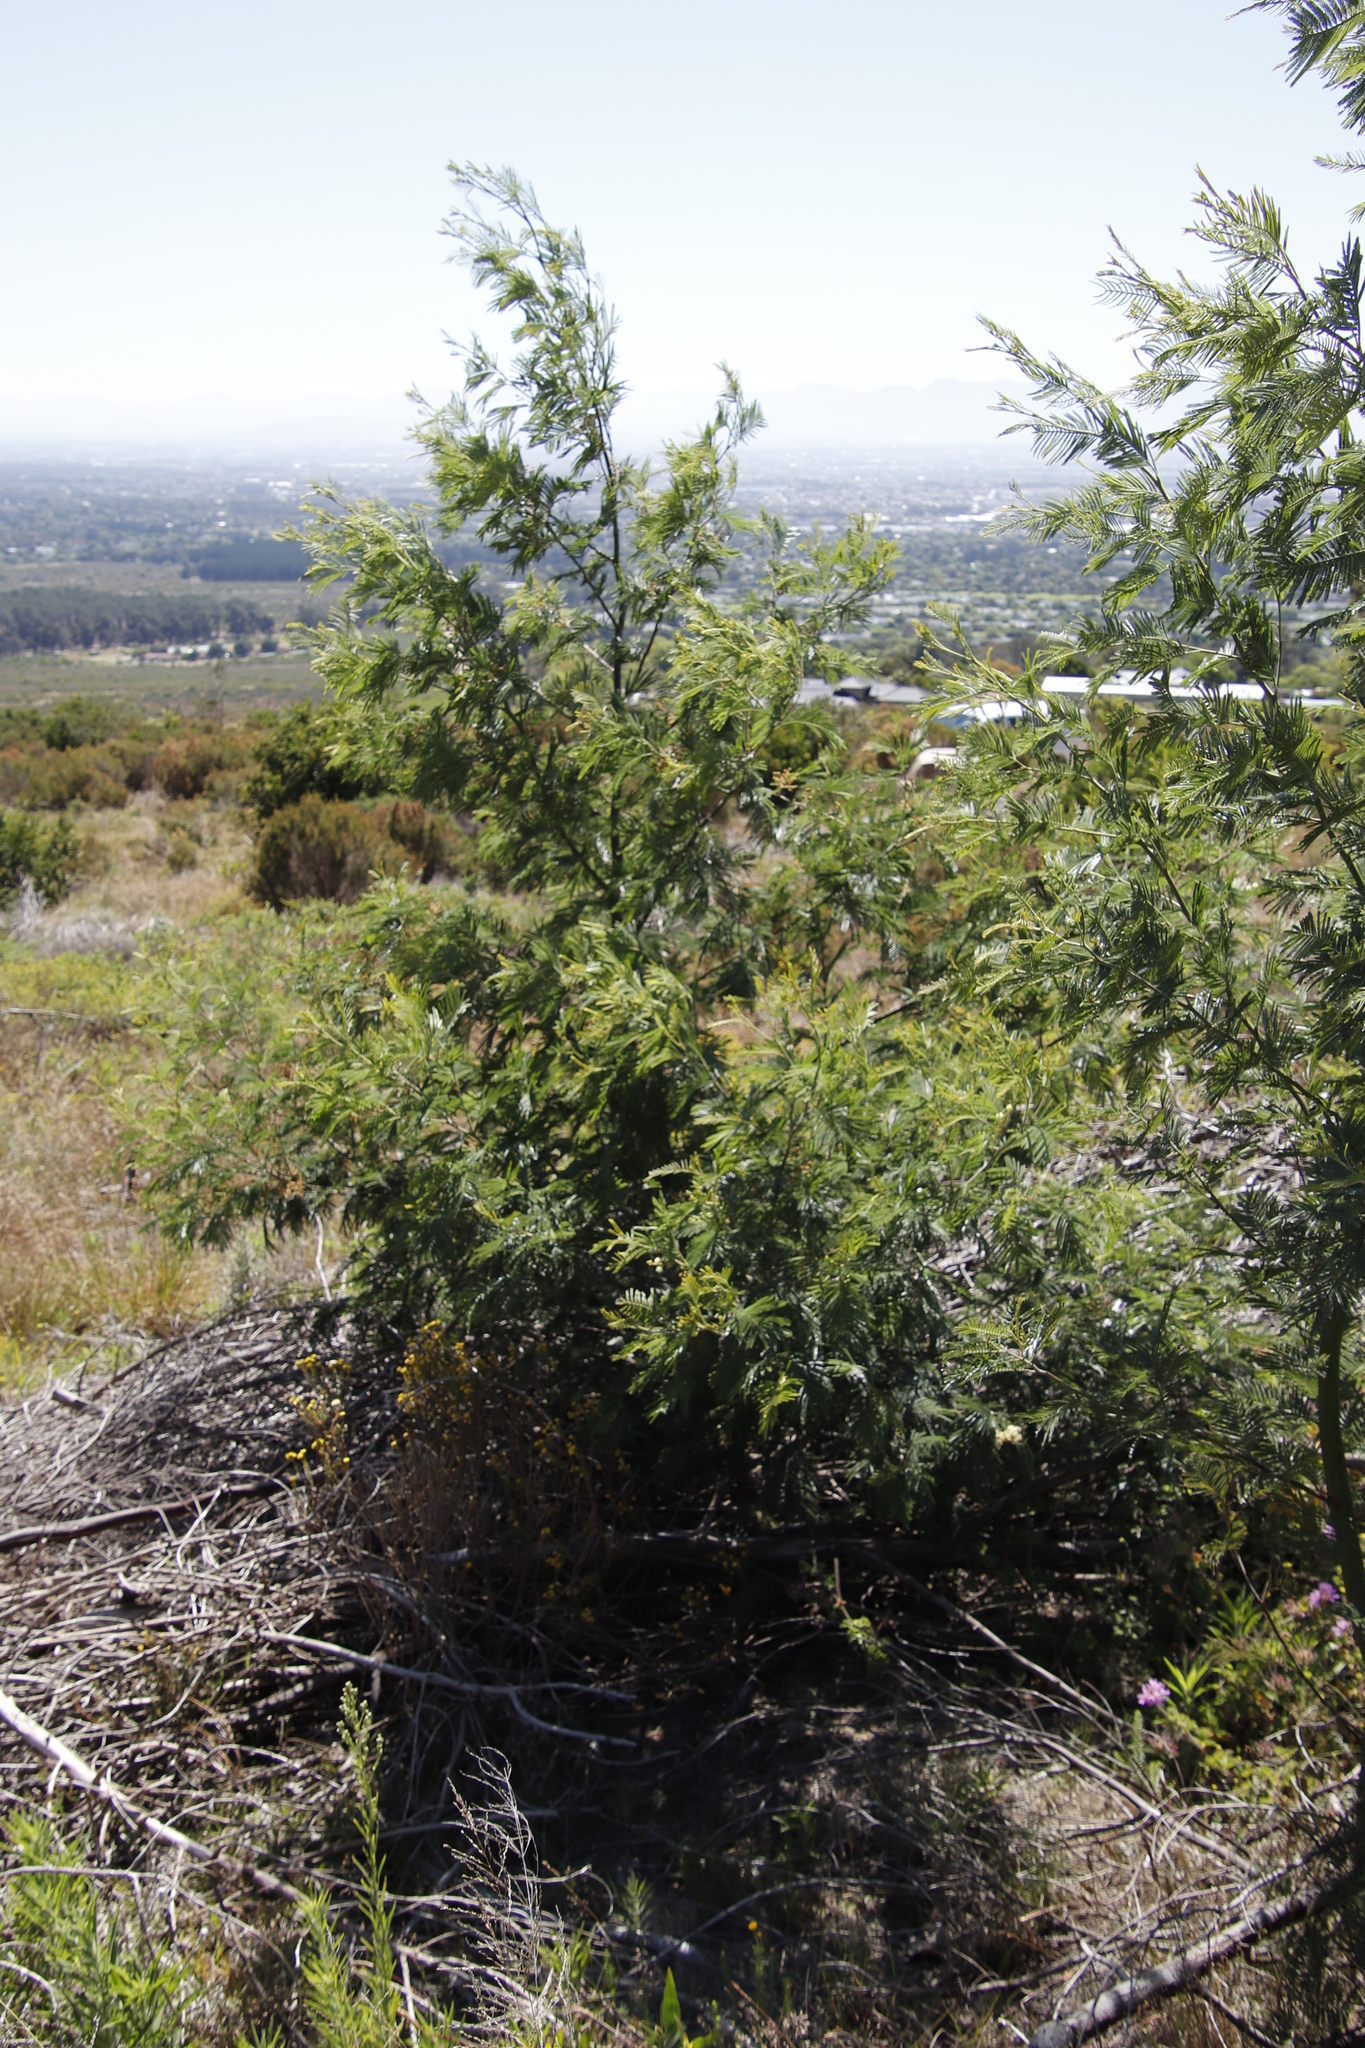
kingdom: Plantae
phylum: Tracheophyta
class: Magnoliopsida
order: Fabales
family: Fabaceae
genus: Acacia
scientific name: Acacia mearnsii
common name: Black wattle
